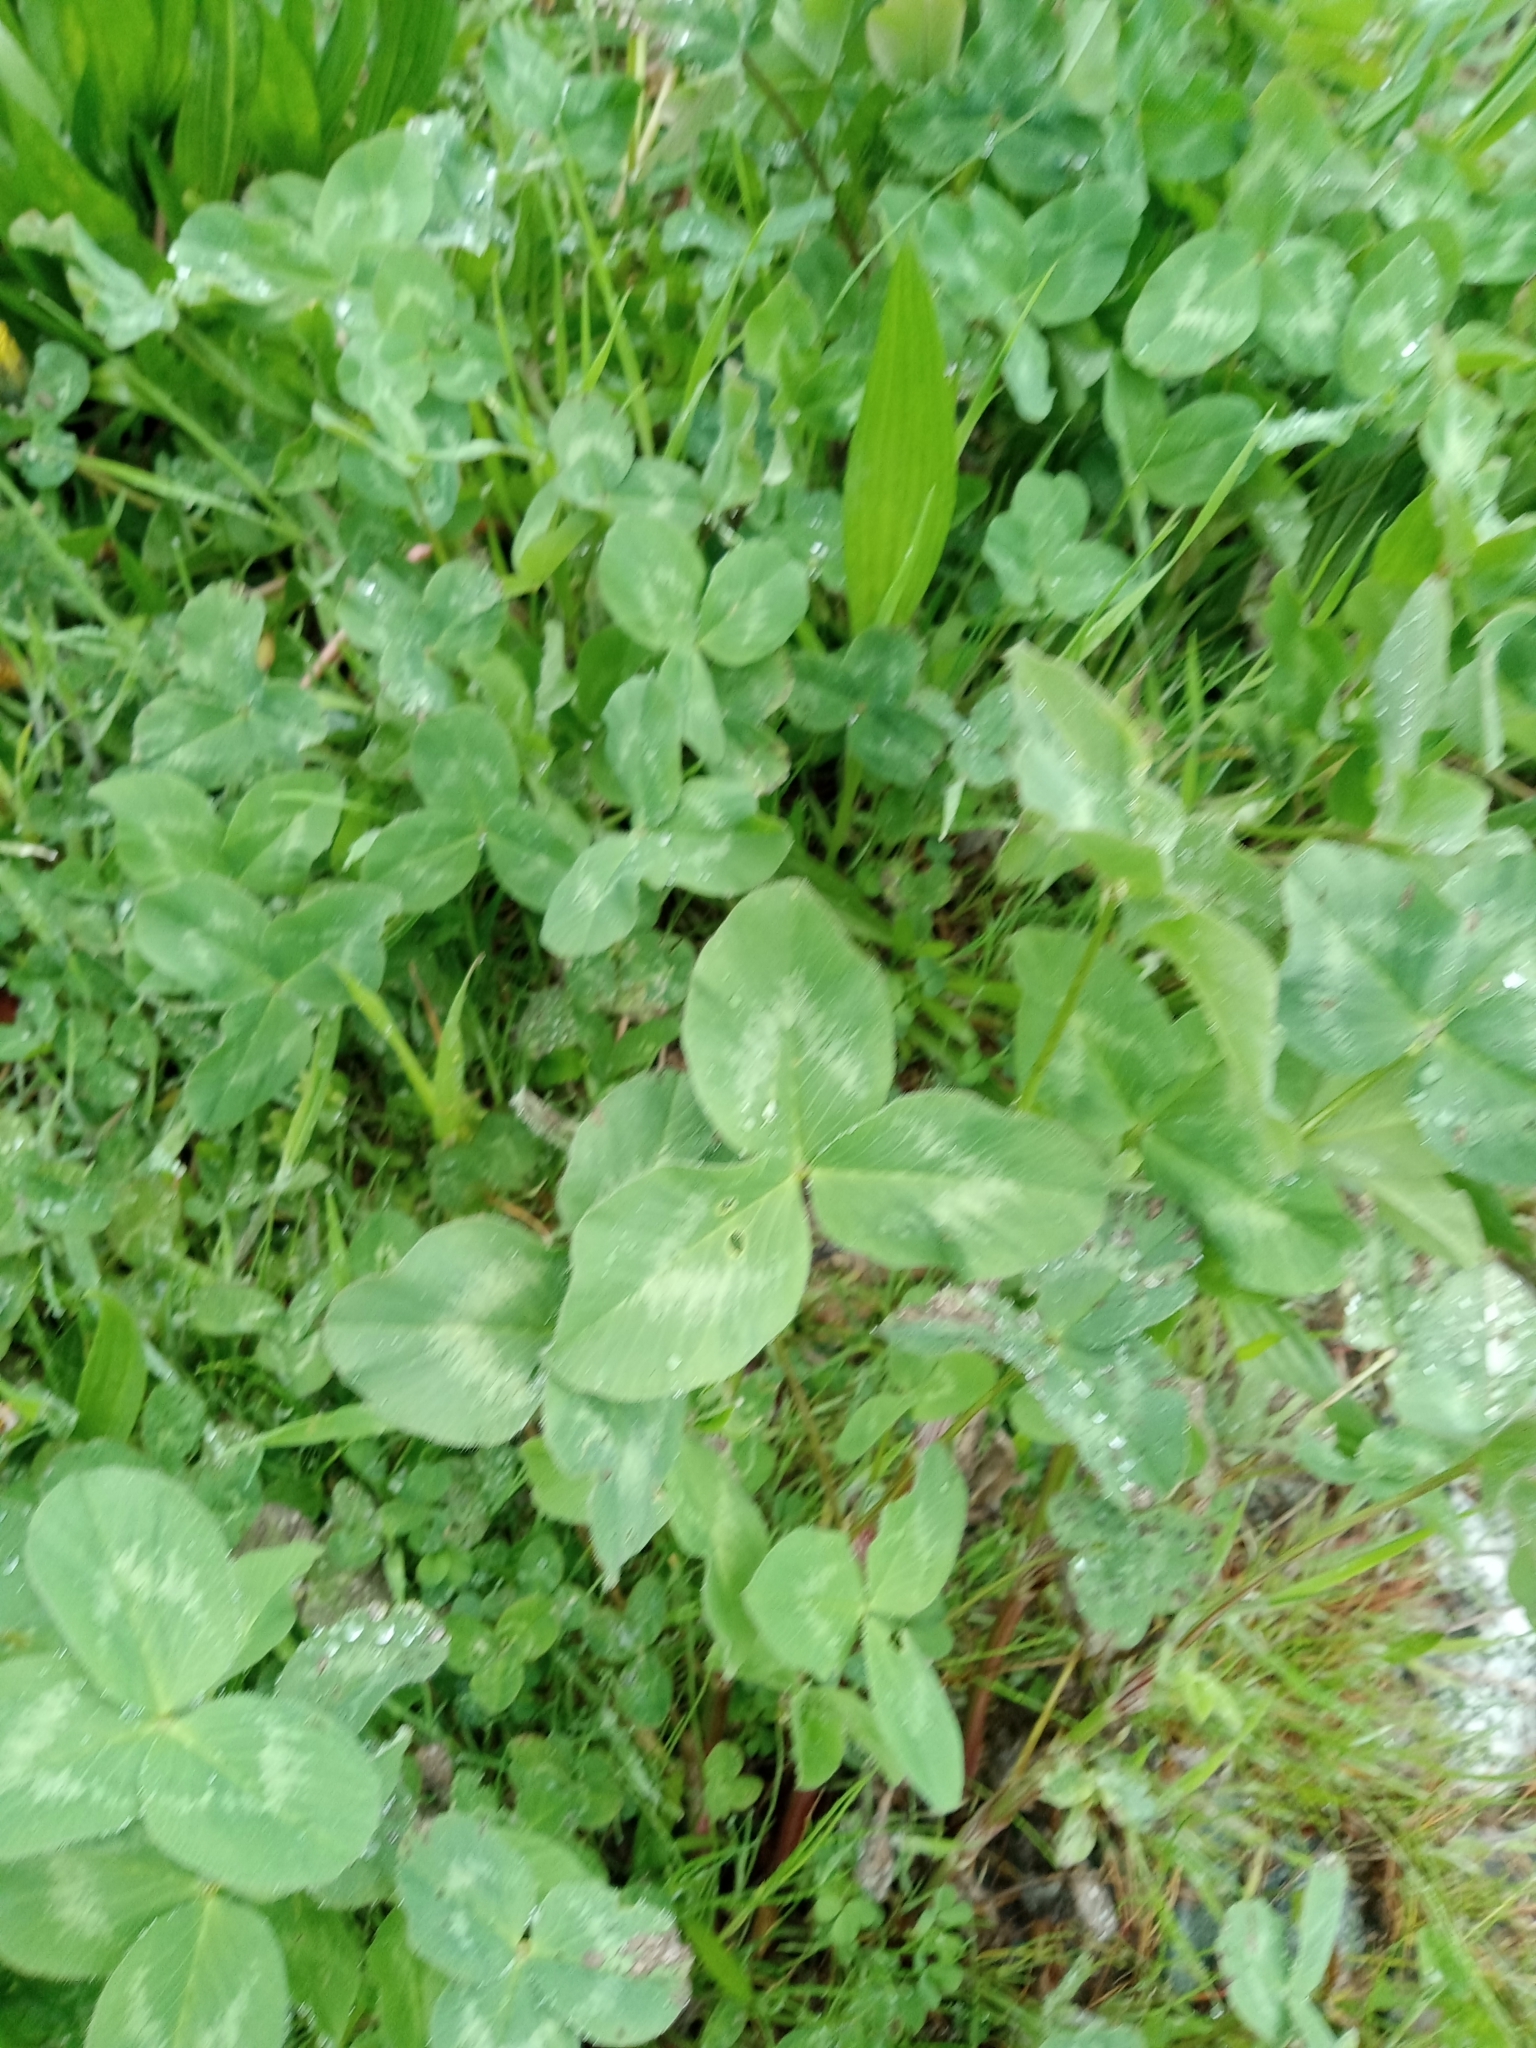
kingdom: Plantae
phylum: Tracheophyta
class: Magnoliopsida
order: Fabales
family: Fabaceae
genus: Trifolium
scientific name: Trifolium pratense
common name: Red clover
